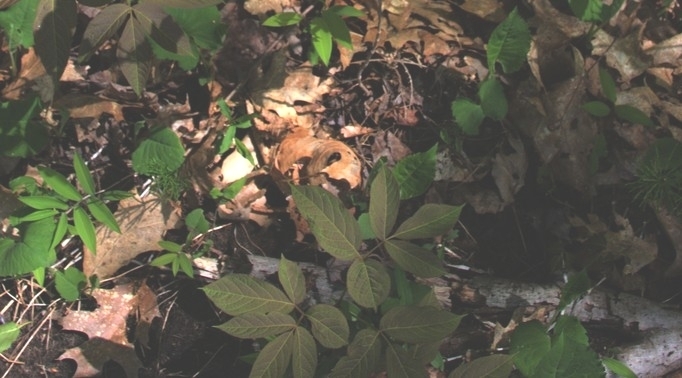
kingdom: Plantae
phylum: Tracheophyta
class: Magnoliopsida
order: Apiales
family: Araliaceae
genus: Aralia
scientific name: Aralia nudicaulis
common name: Wild sarsaparilla
